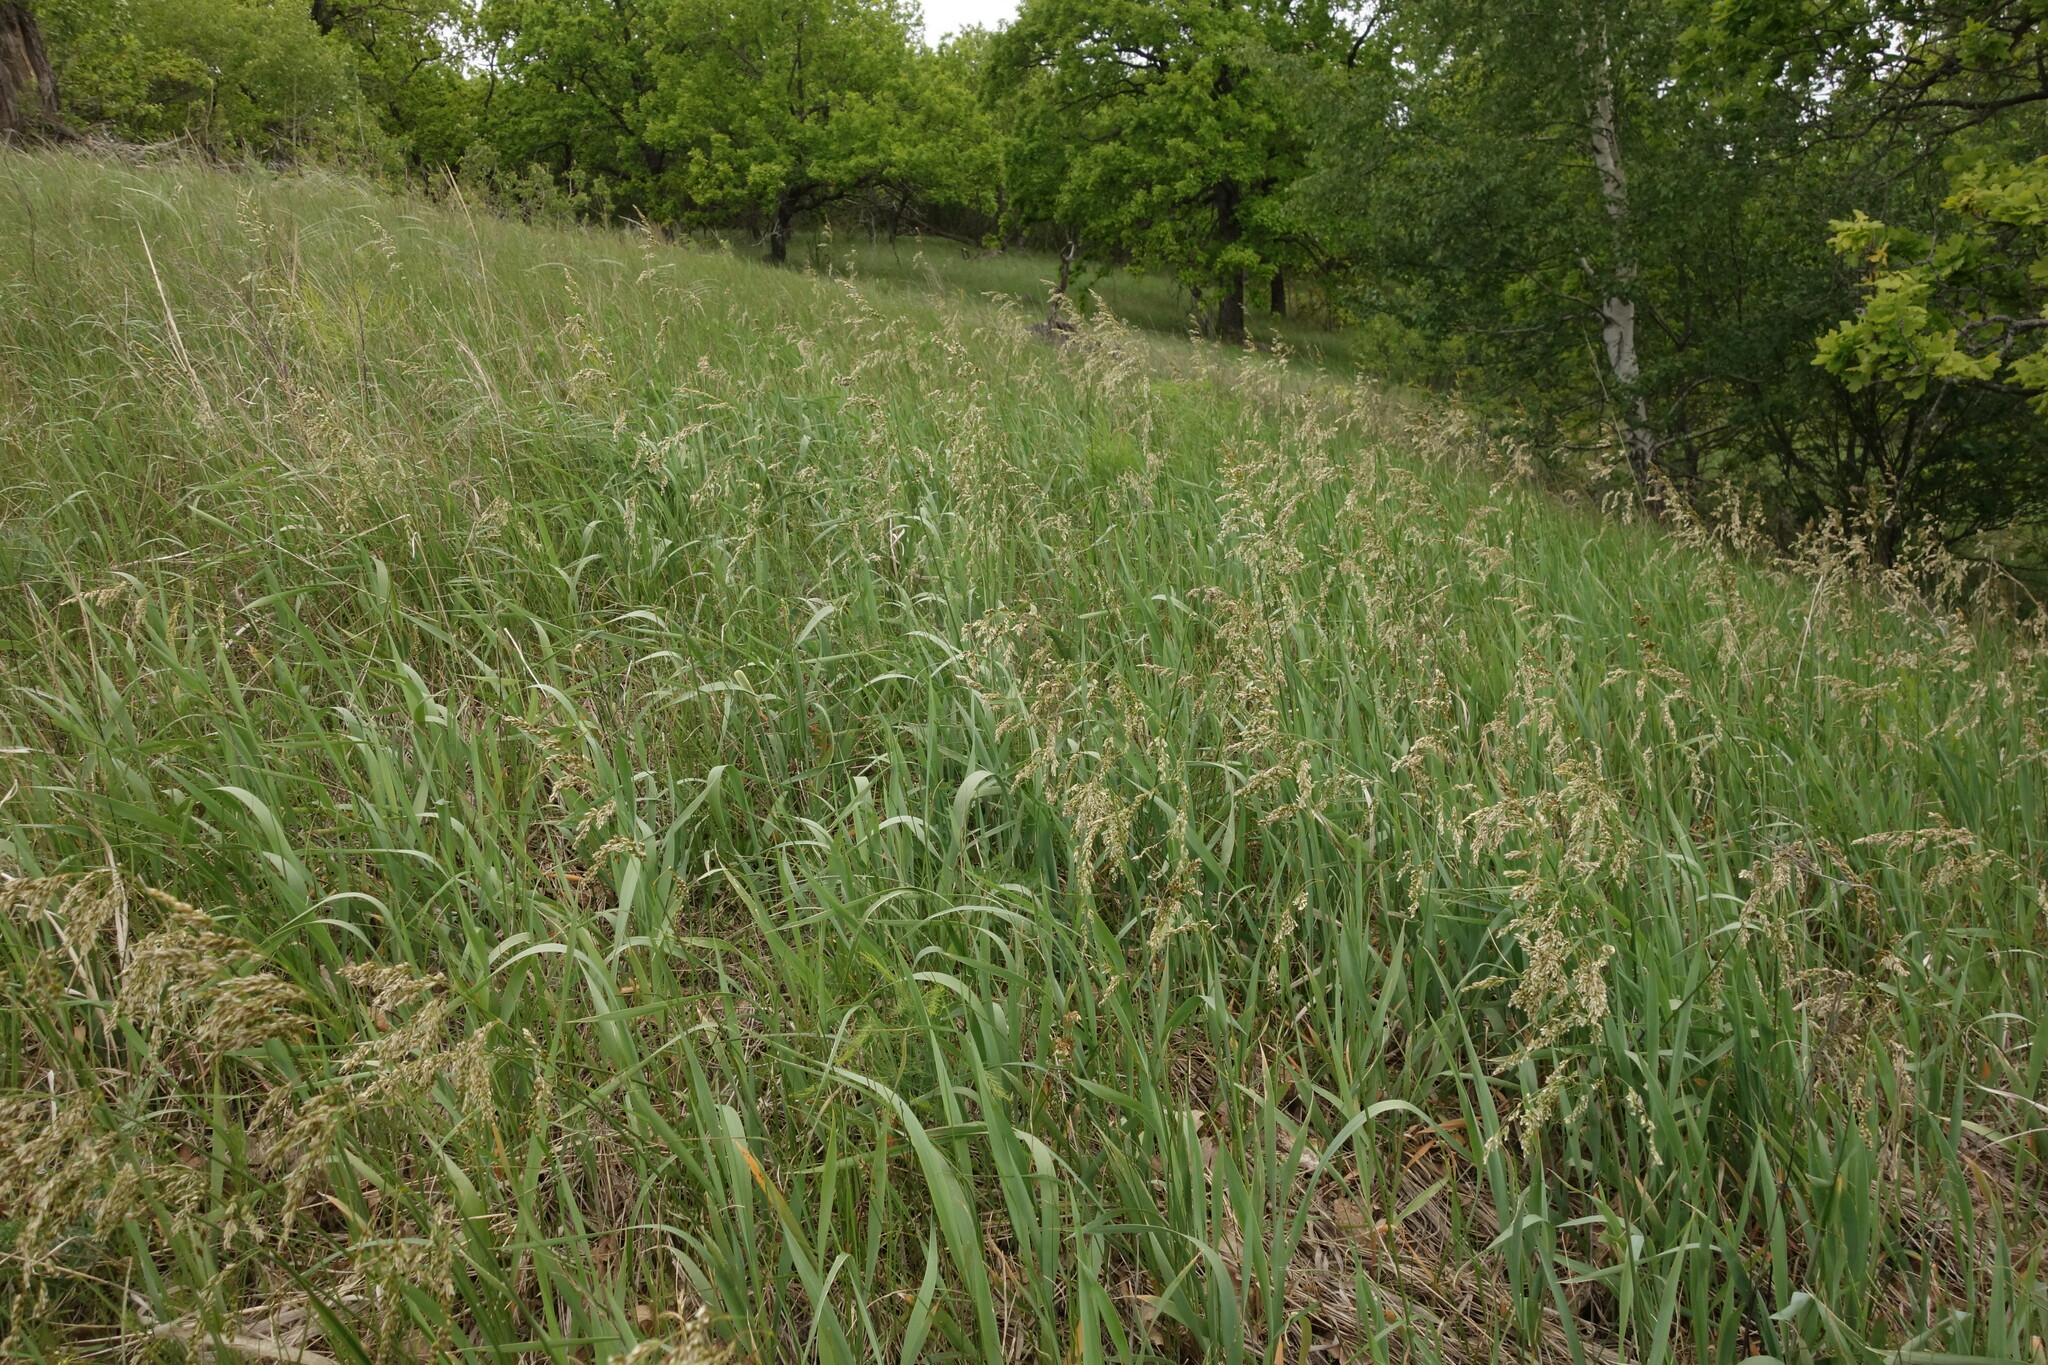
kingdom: Plantae
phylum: Tracheophyta
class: Liliopsida
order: Poales
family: Poaceae
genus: Anthoxanthum
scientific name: Anthoxanthum repens
